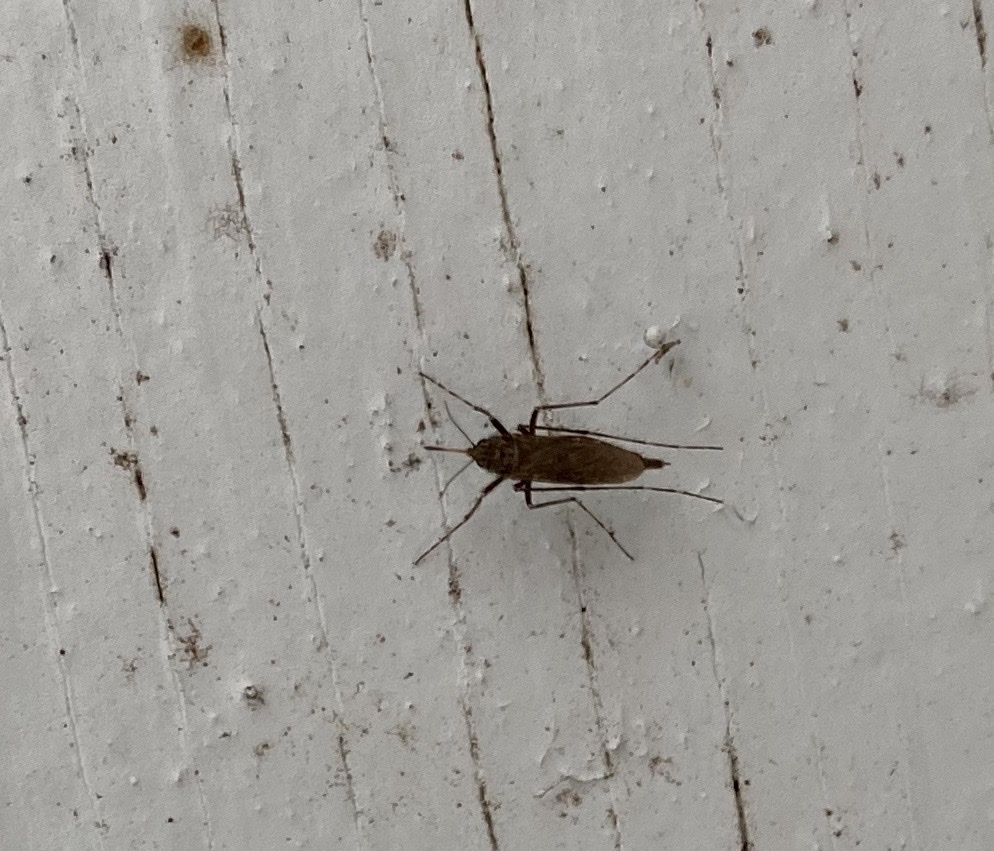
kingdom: Animalia
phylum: Arthropoda
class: Insecta
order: Diptera
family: Culicidae
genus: Psorophora
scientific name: Psorophora columbiae
